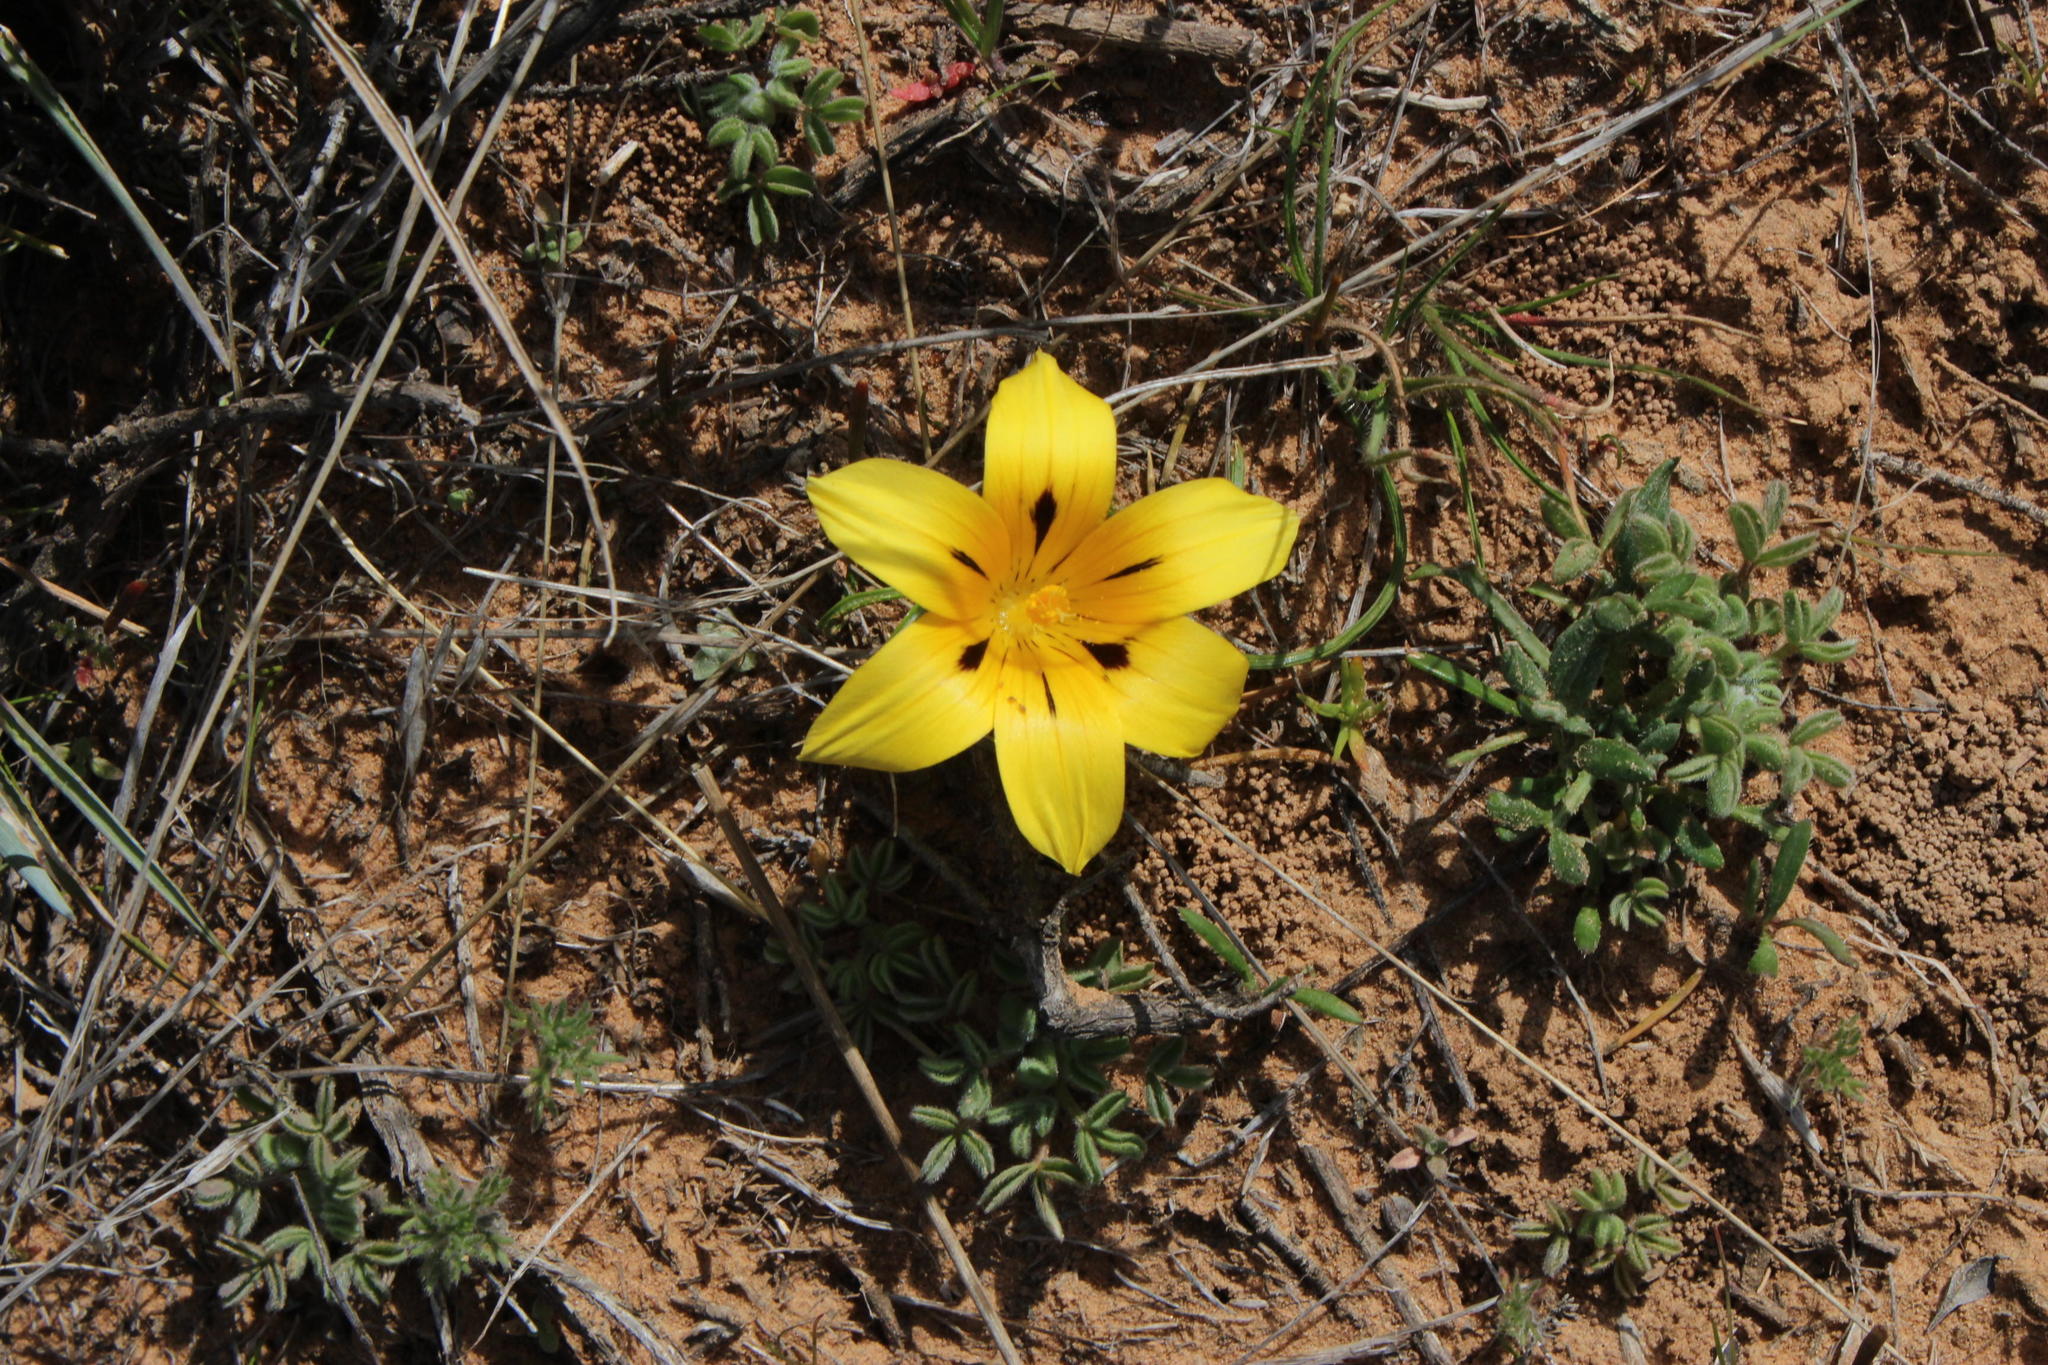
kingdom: Plantae
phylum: Tracheophyta
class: Liliopsida
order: Asparagales
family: Iridaceae
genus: Romulea
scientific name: Romulea tortuosa
